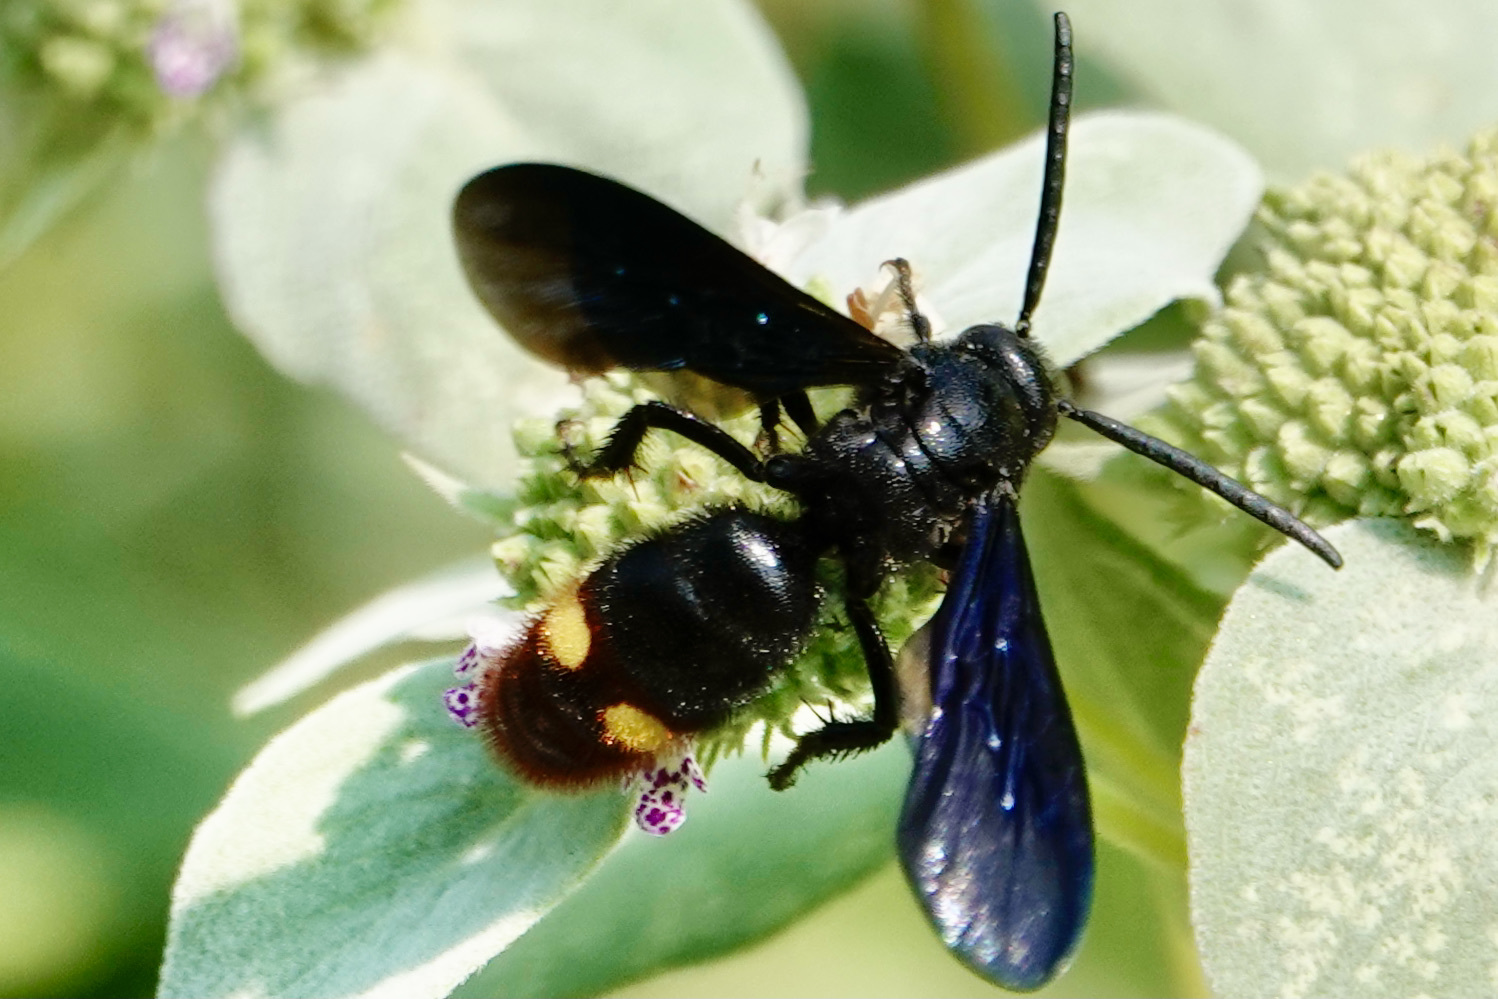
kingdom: Animalia
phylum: Arthropoda
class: Insecta
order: Hymenoptera
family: Scoliidae
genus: Scolia
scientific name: Scolia dubia
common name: Blue-winged scoliid wasp
